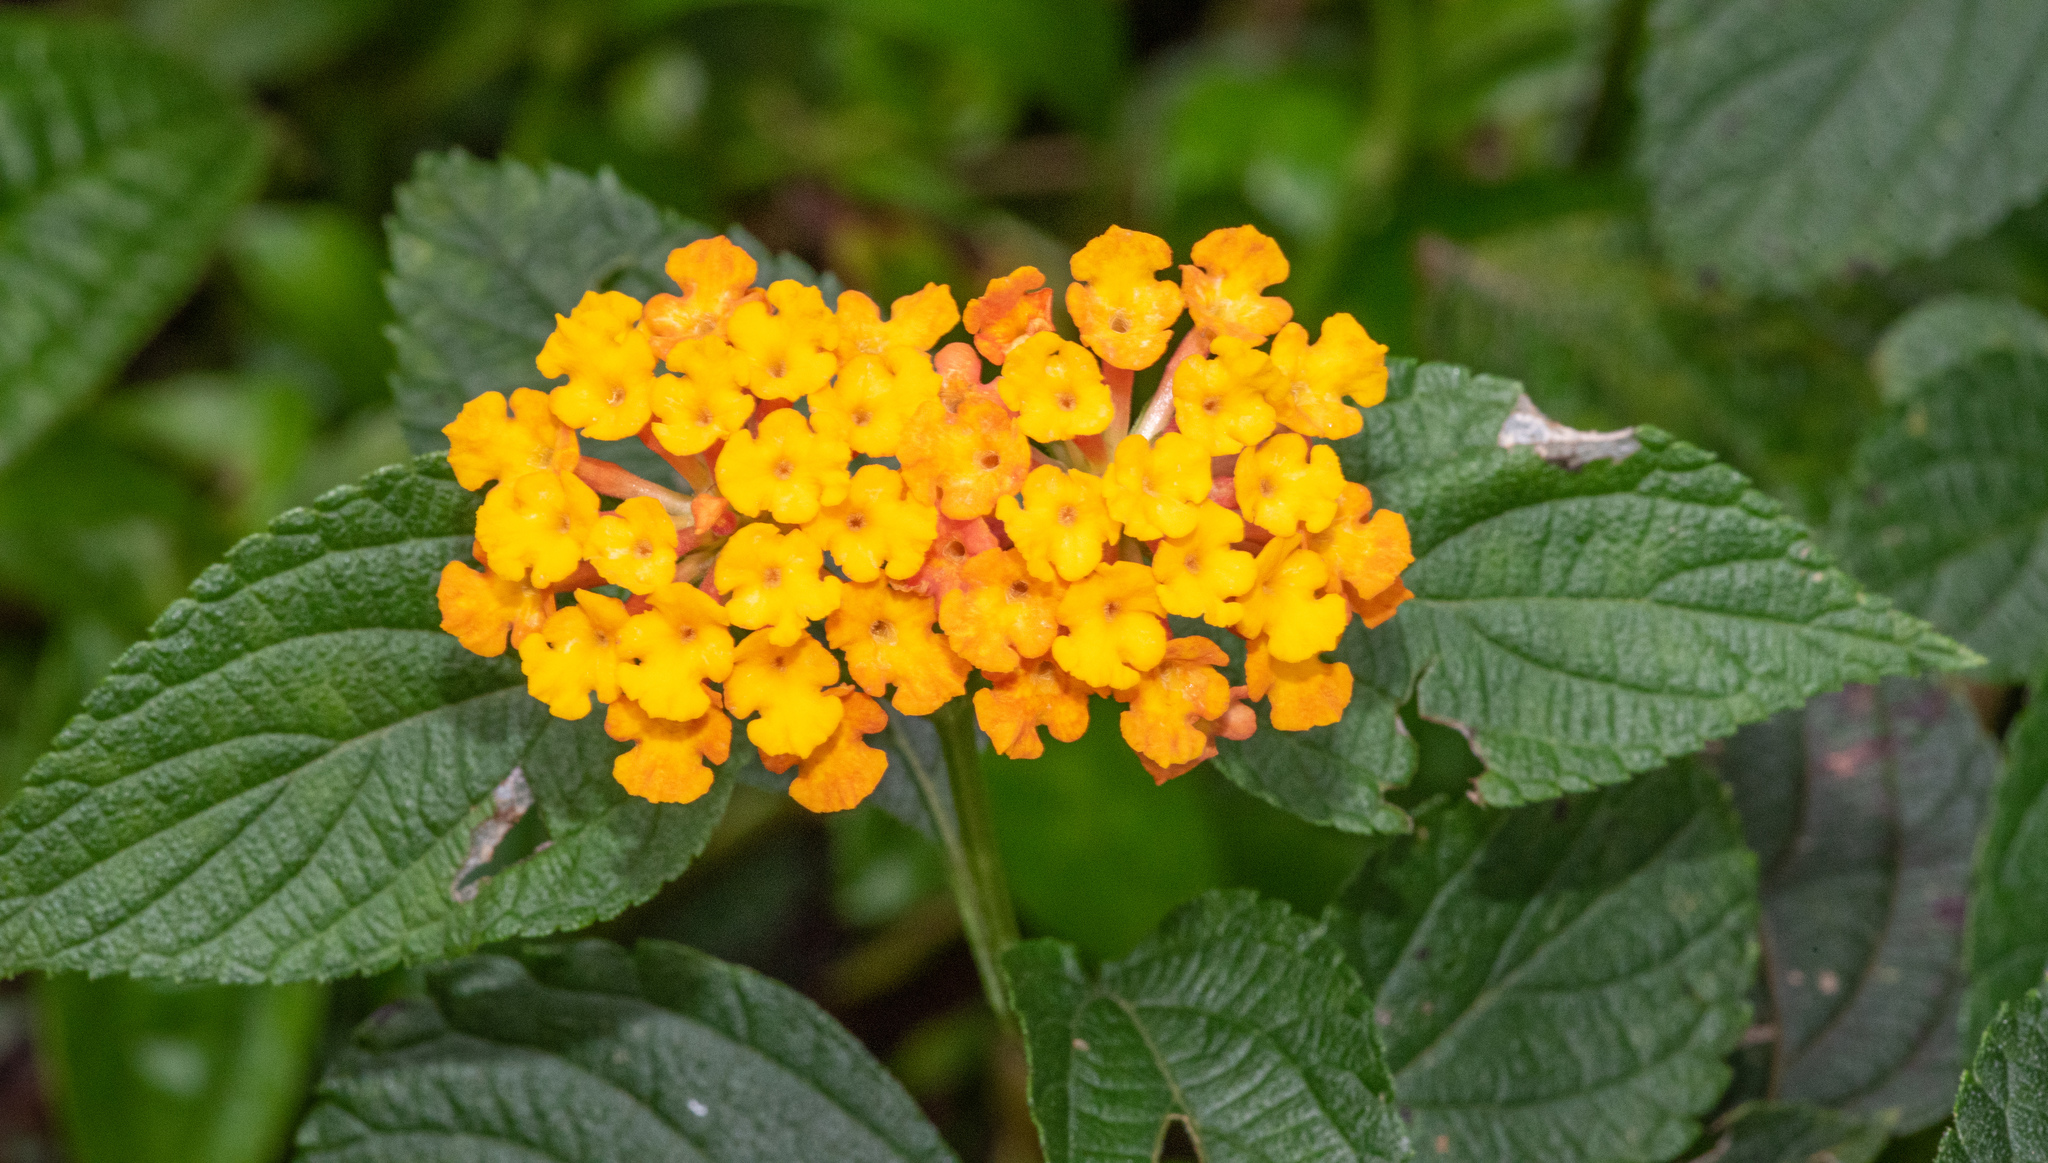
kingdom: Plantae
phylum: Tracheophyta
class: Magnoliopsida
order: Lamiales
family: Verbenaceae
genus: Lantana
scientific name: Lantana camara
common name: Lantana
